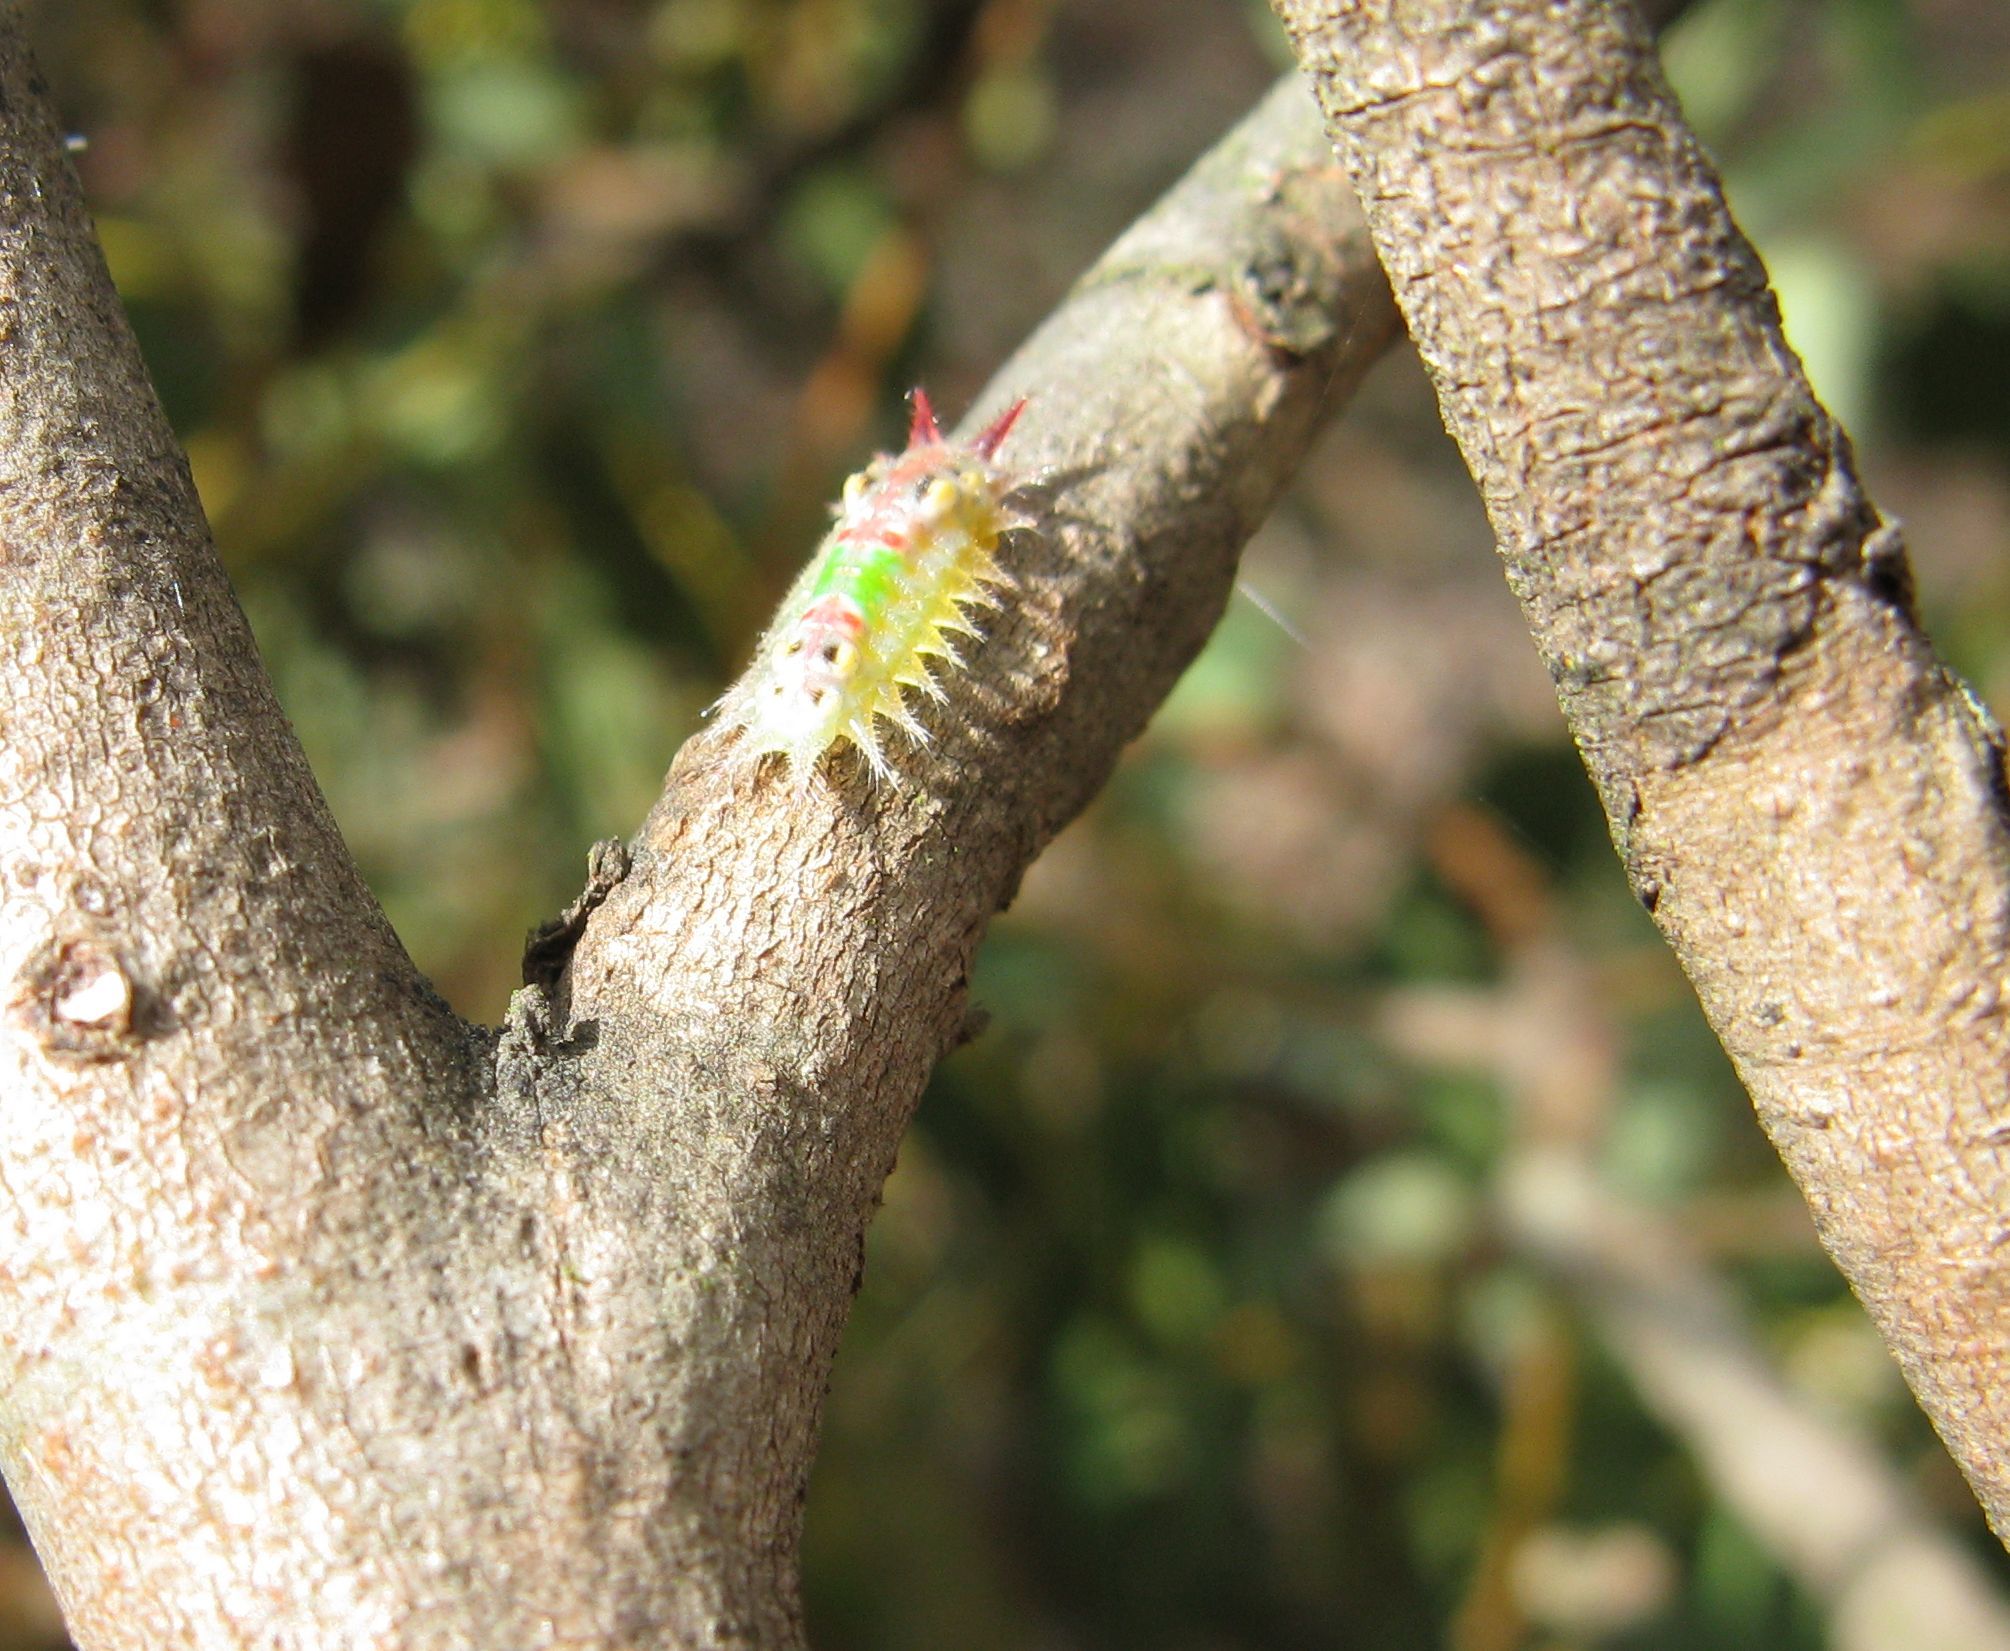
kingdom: Animalia
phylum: Arthropoda
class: Insecta
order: Lepidoptera
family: Limacodidae
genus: Doratifera
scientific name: Doratifera oxleyi
